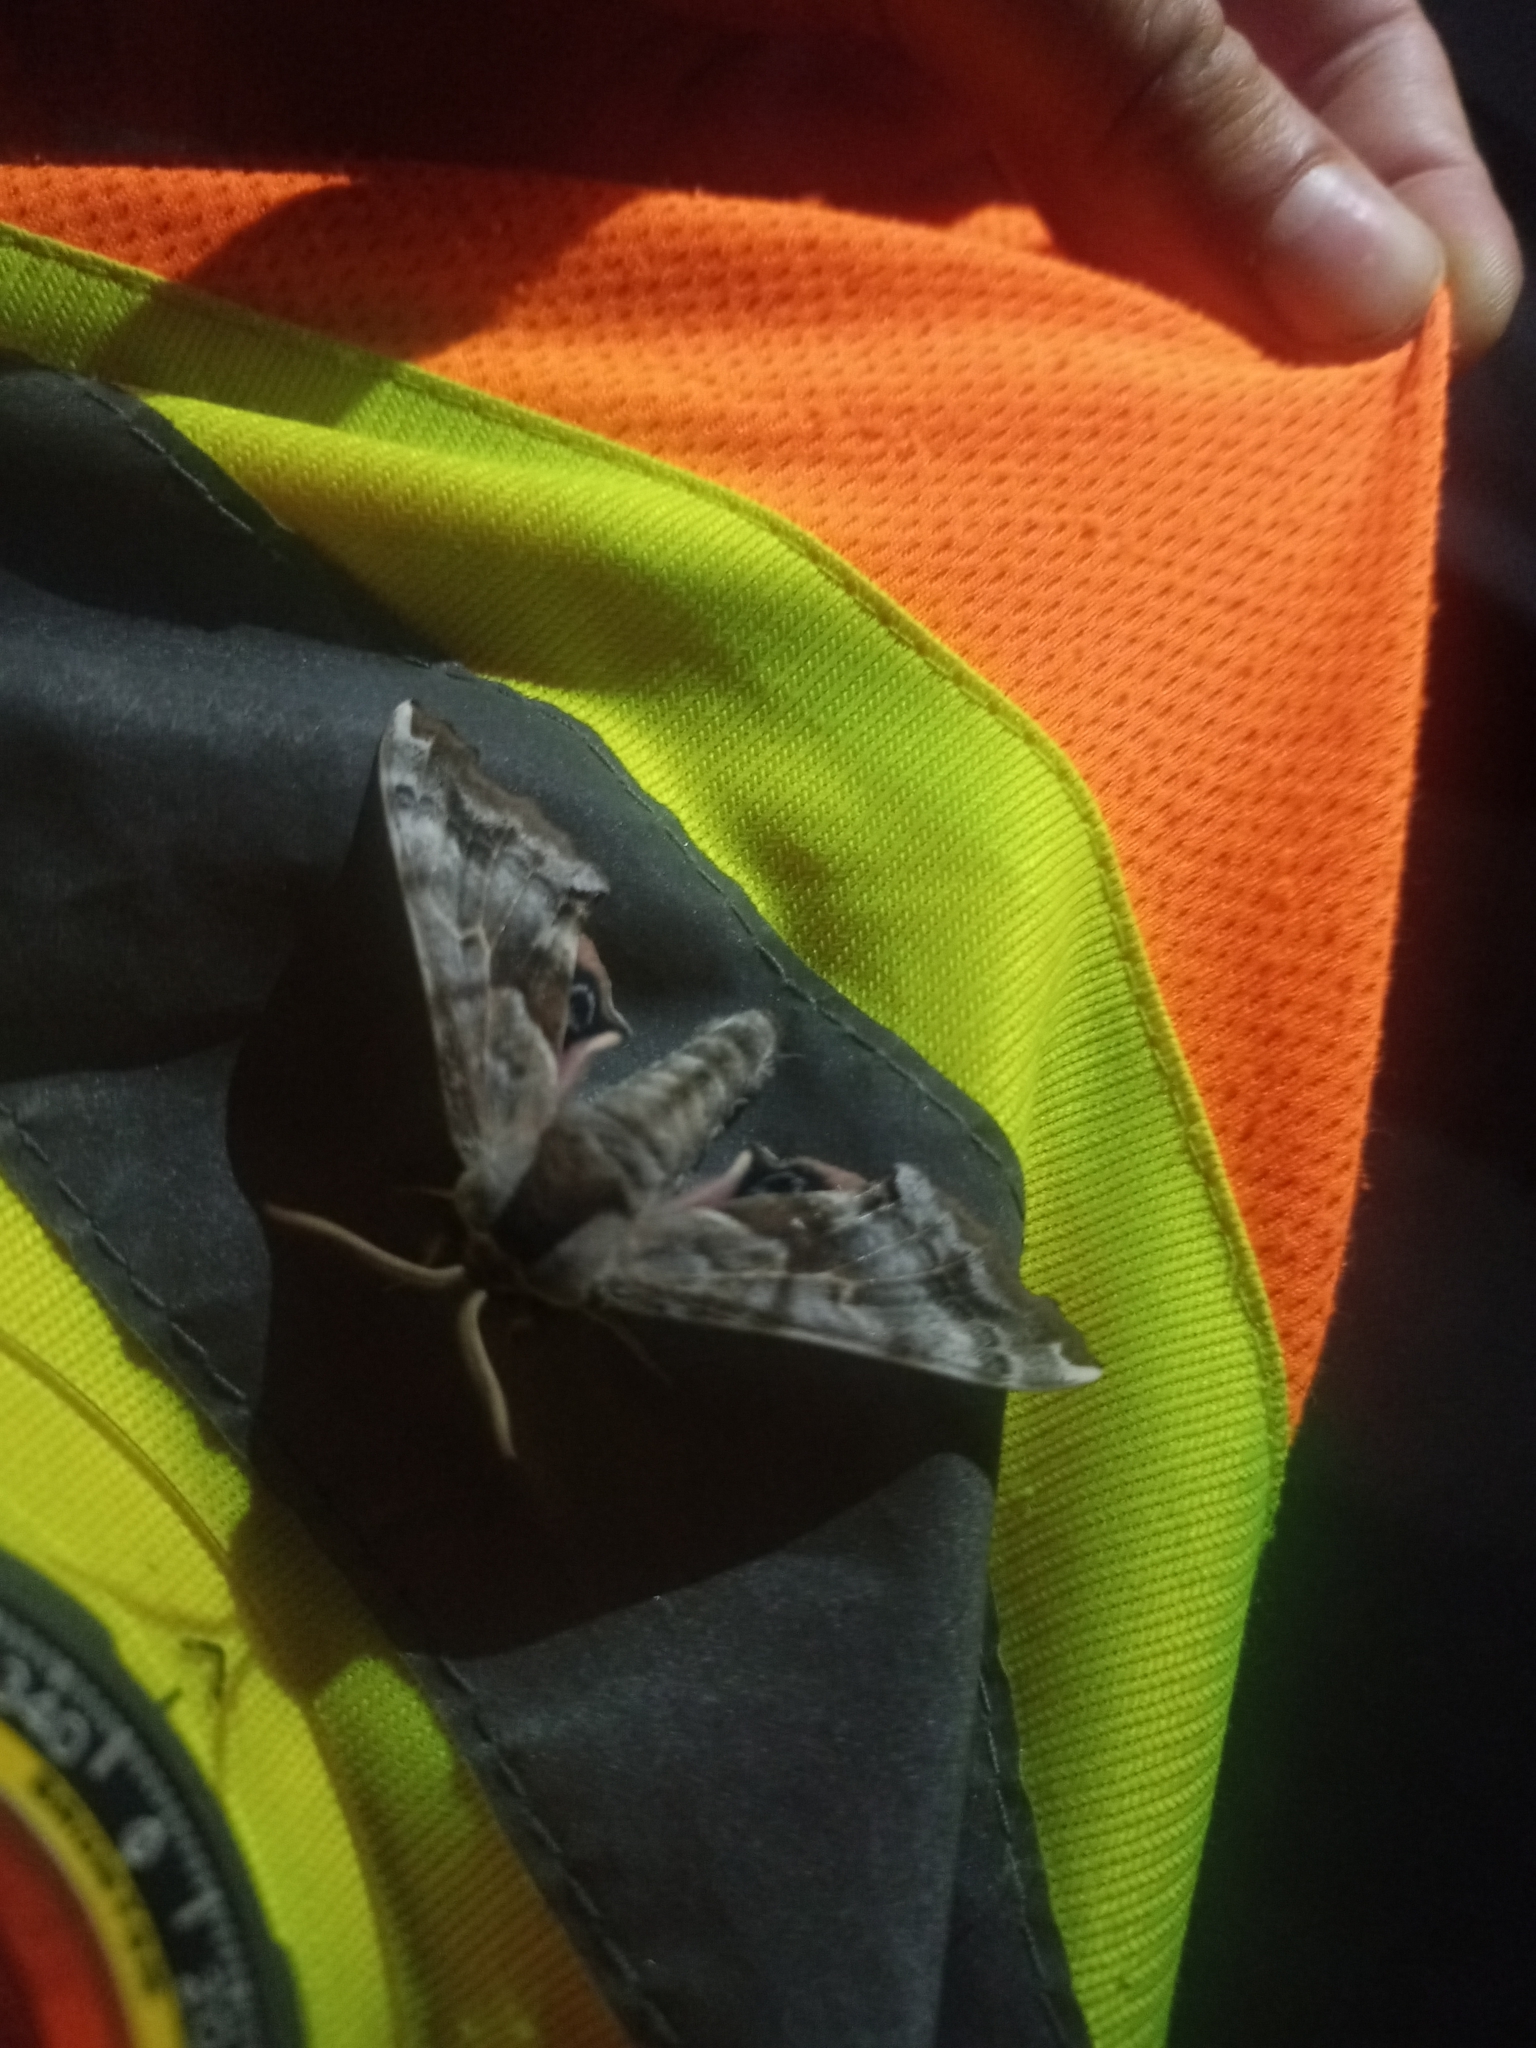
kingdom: Animalia
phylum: Arthropoda
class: Insecta
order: Lepidoptera
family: Sphingidae
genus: Smerinthus
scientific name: Smerinthus cerisyi
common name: Cerisy's sphinx moth
